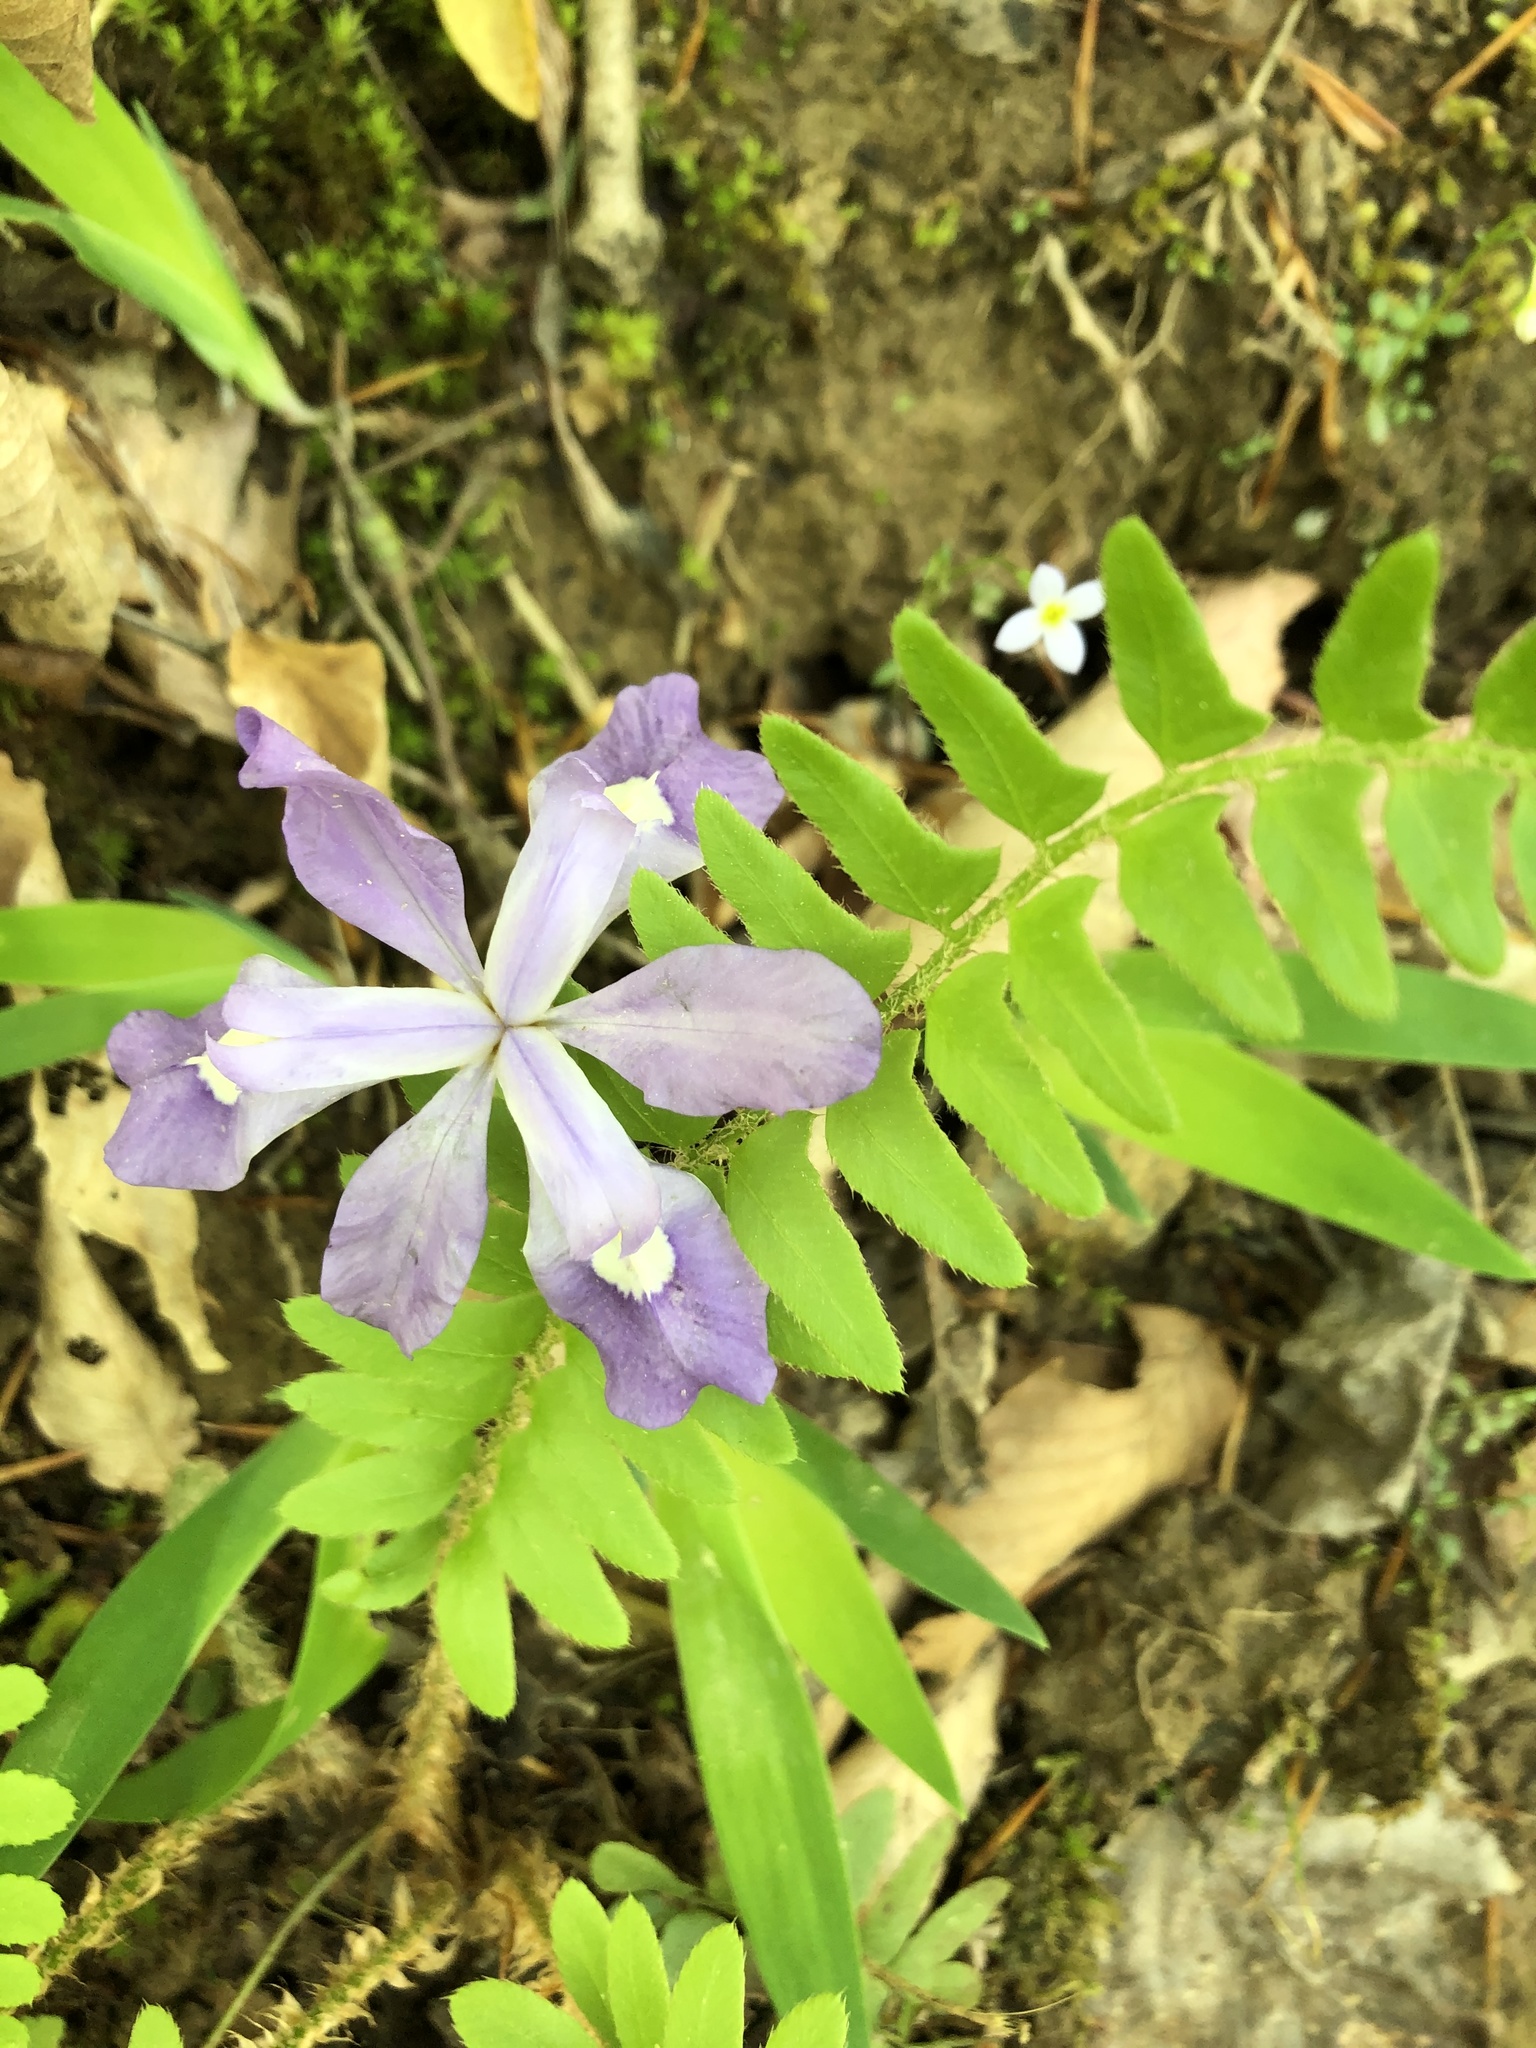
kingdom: Plantae
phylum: Tracheophyta
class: Liliopsida
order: Asparagales
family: Iridaceae
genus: Iris
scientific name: Iris cristata
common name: Crested iris
